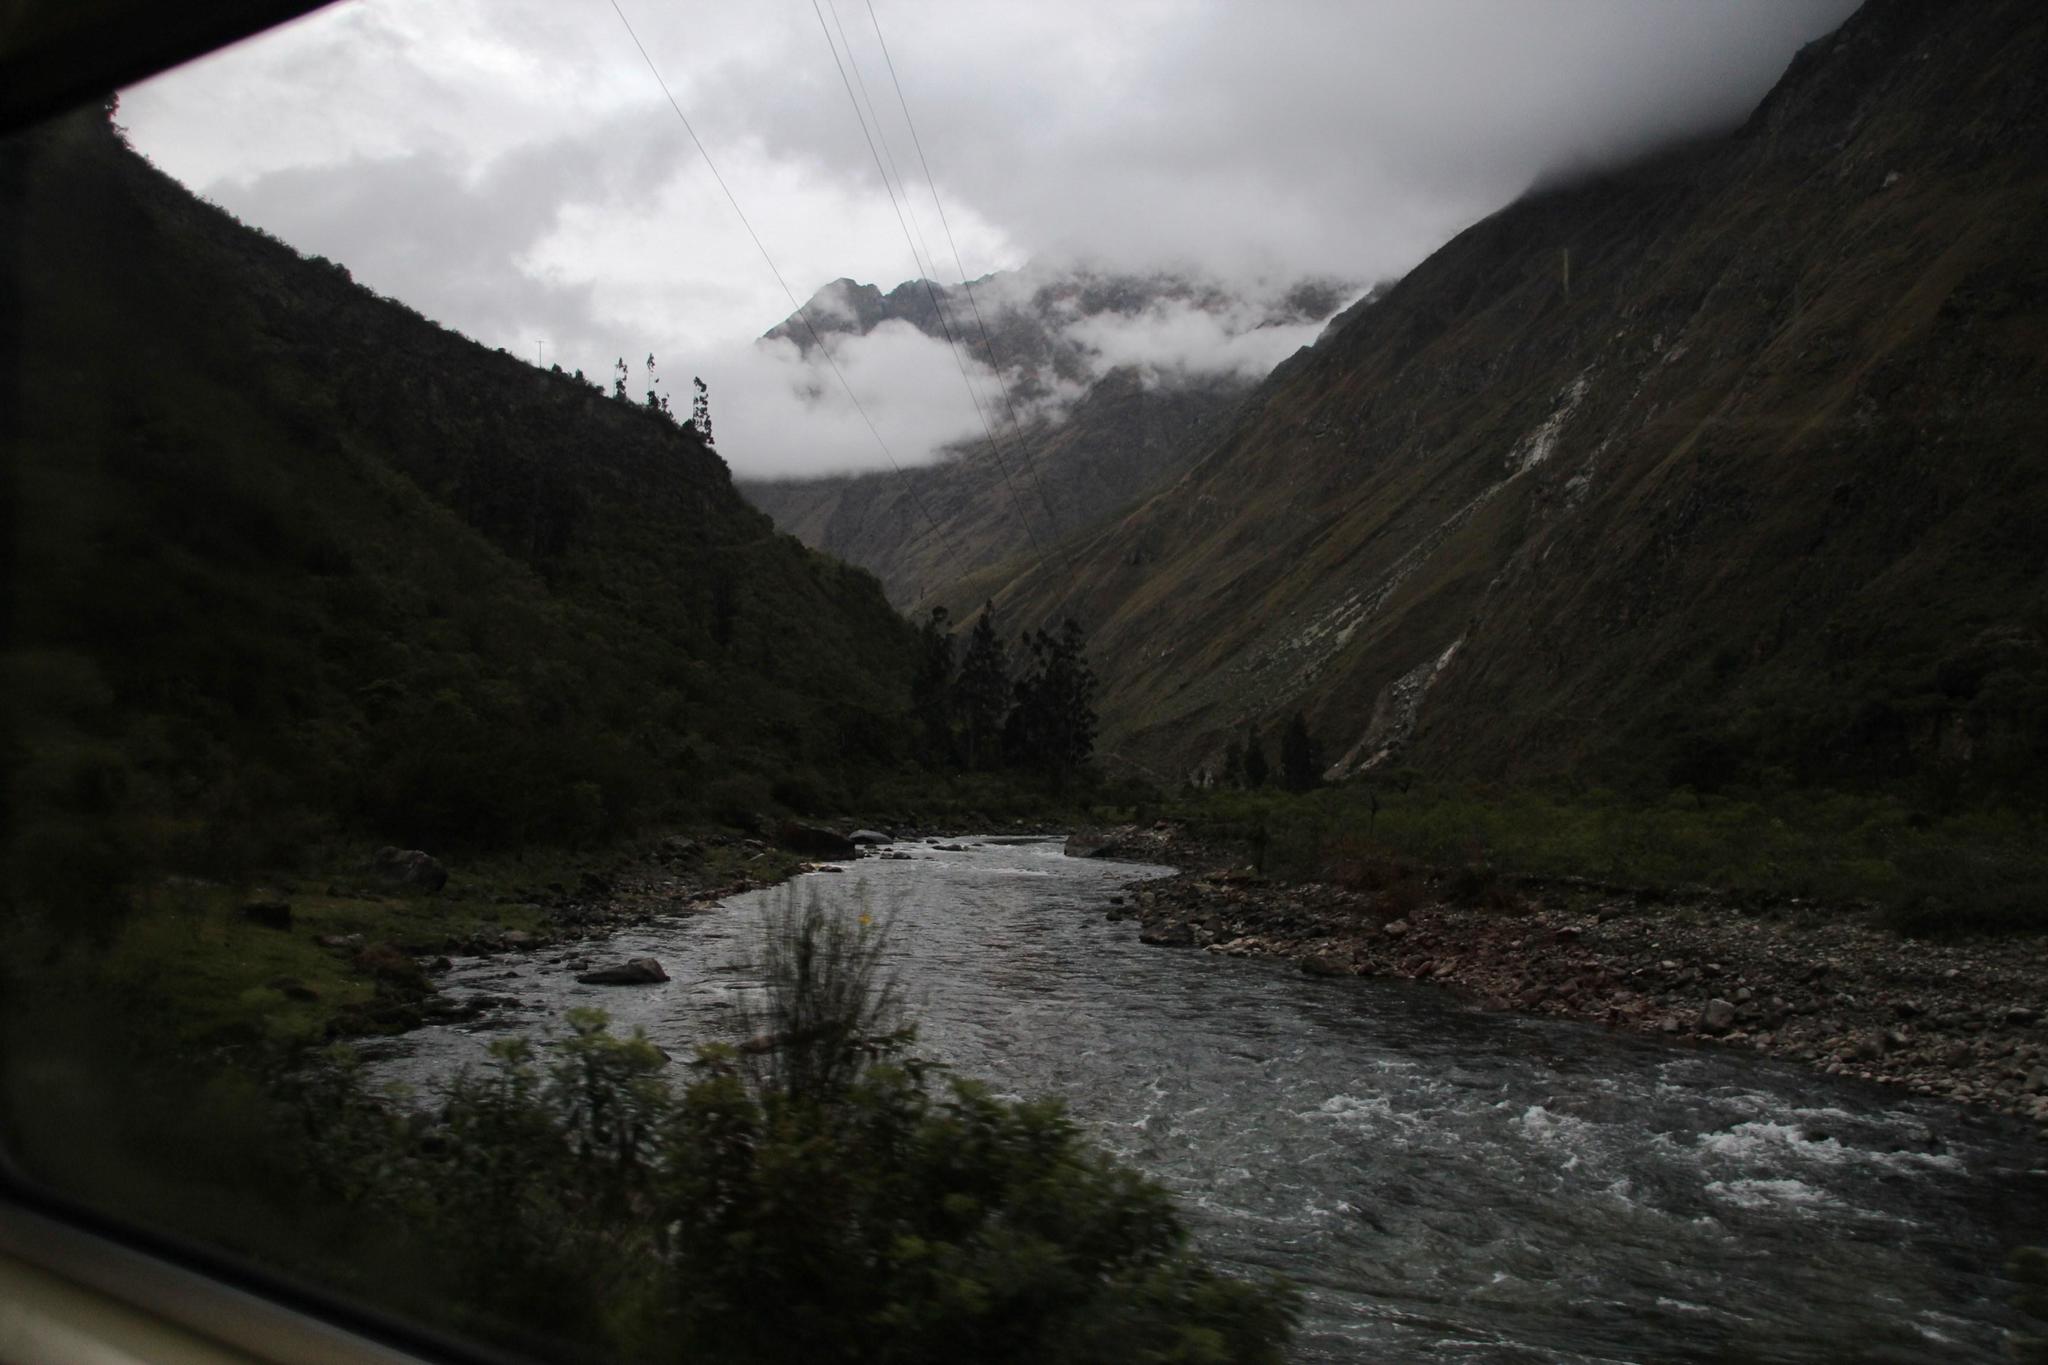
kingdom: Plantae
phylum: Tracheophyta
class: Magnoliopsida
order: Fabales
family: Fabaceae
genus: Spartium
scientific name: Spartium junceum
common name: Spanish broom
